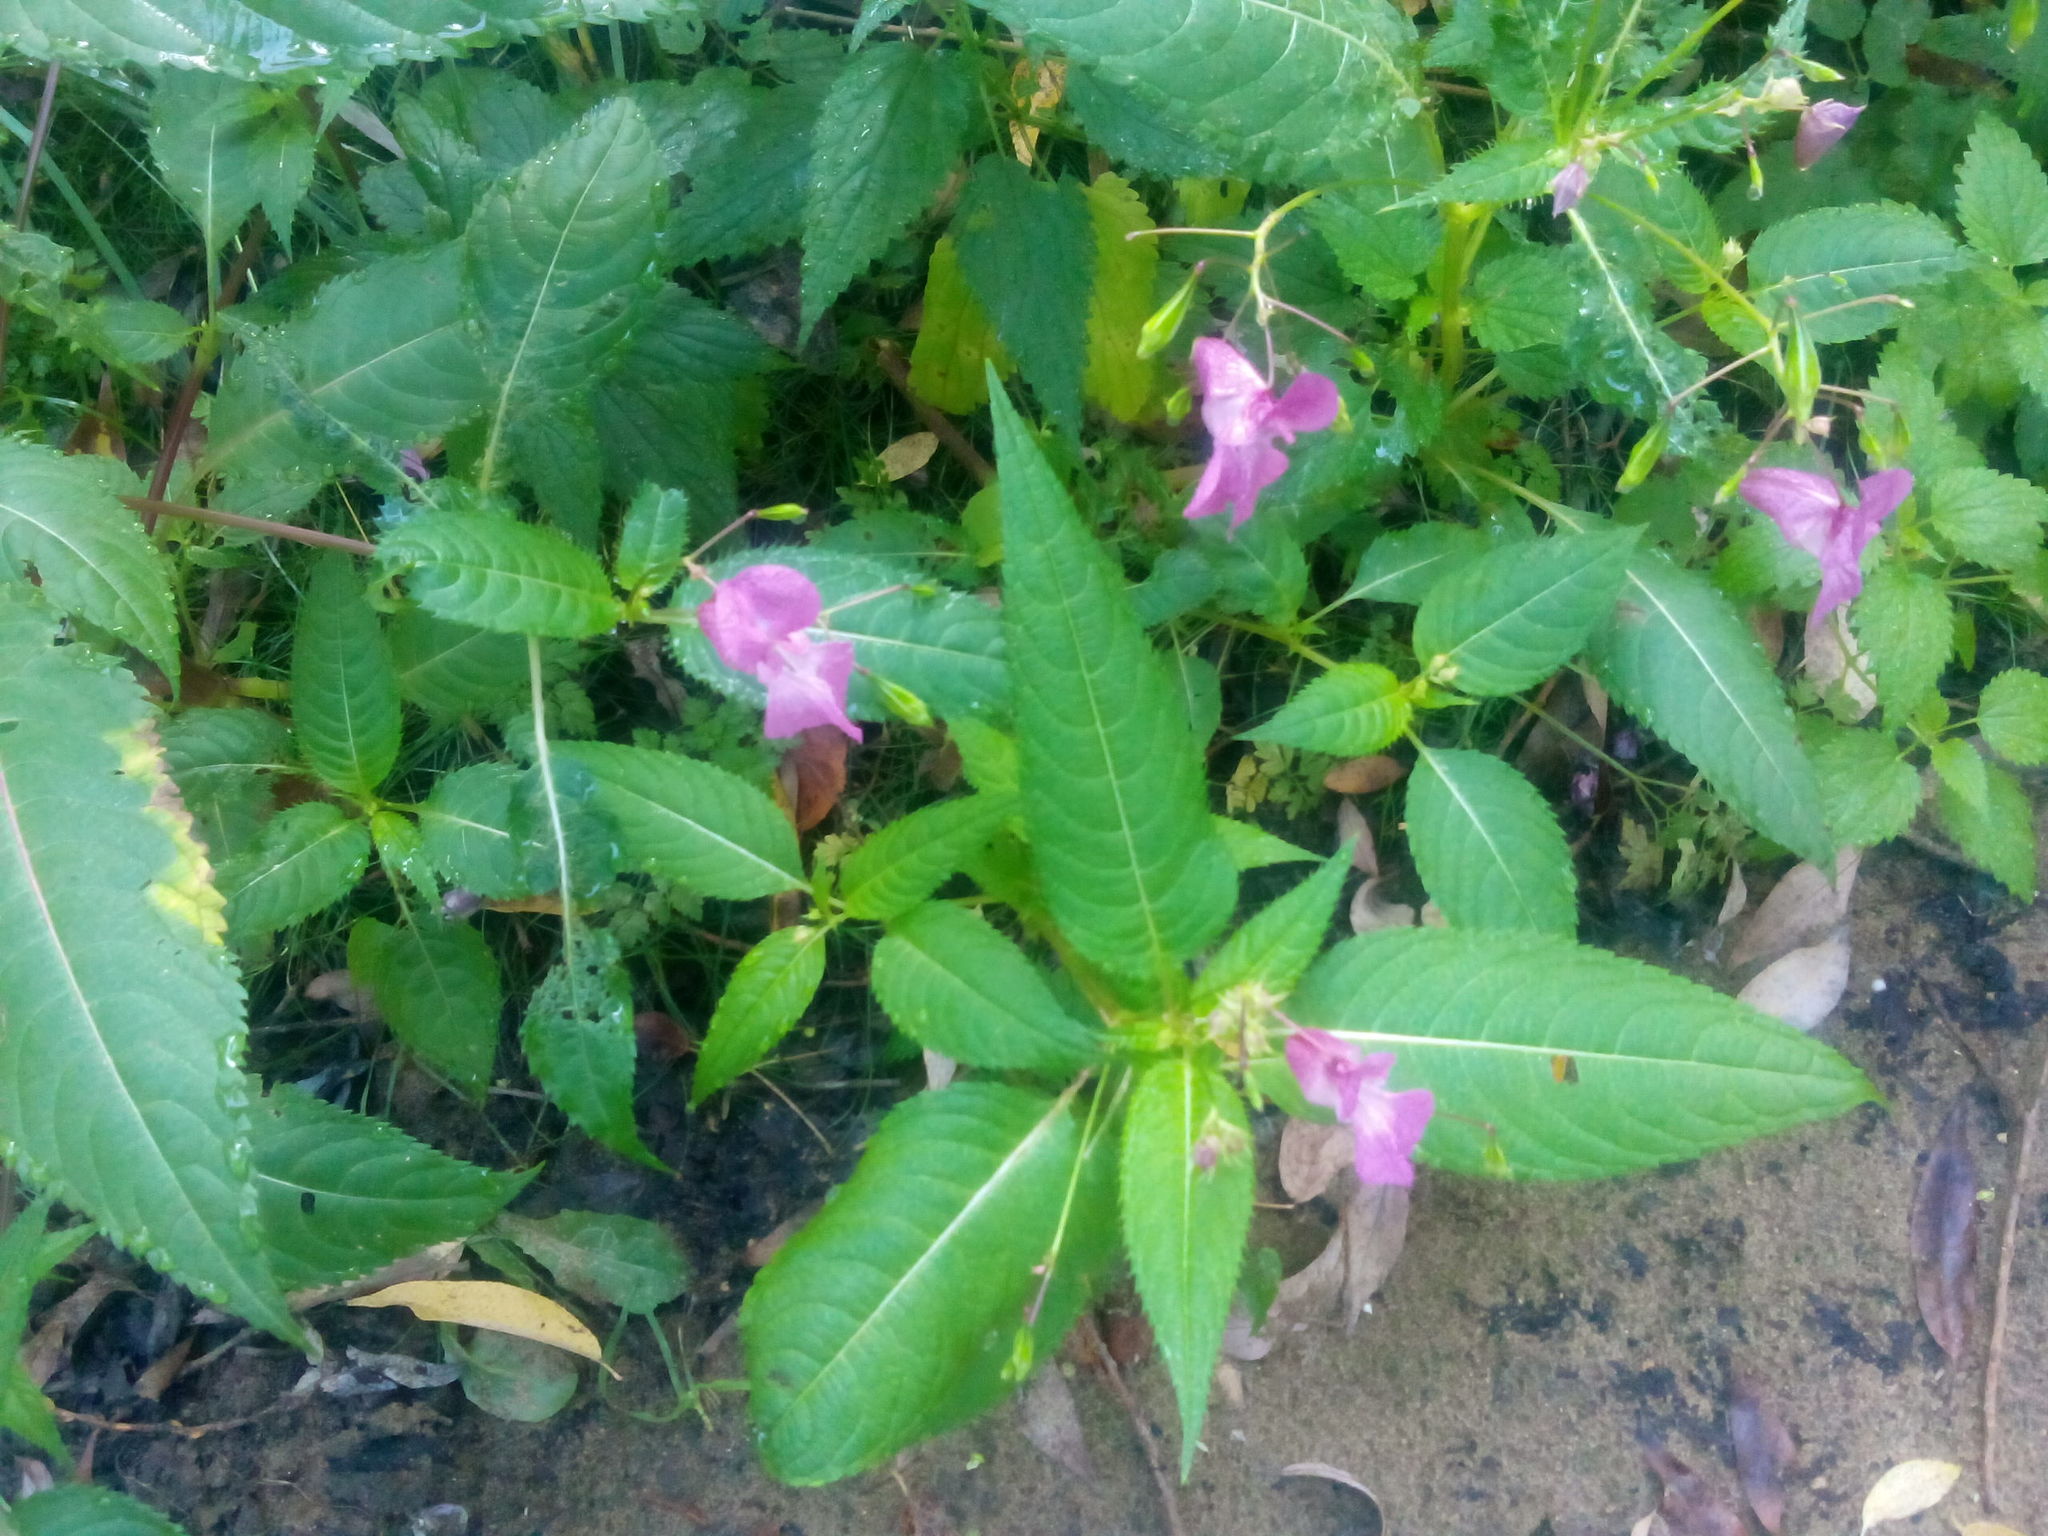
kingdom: Plantae
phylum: Tracheophyta
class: Magnoliopsida
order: Ericales
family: Balsaminaceae
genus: Impatiens
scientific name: Impatiens glandulifera
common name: Himalayan balsam
